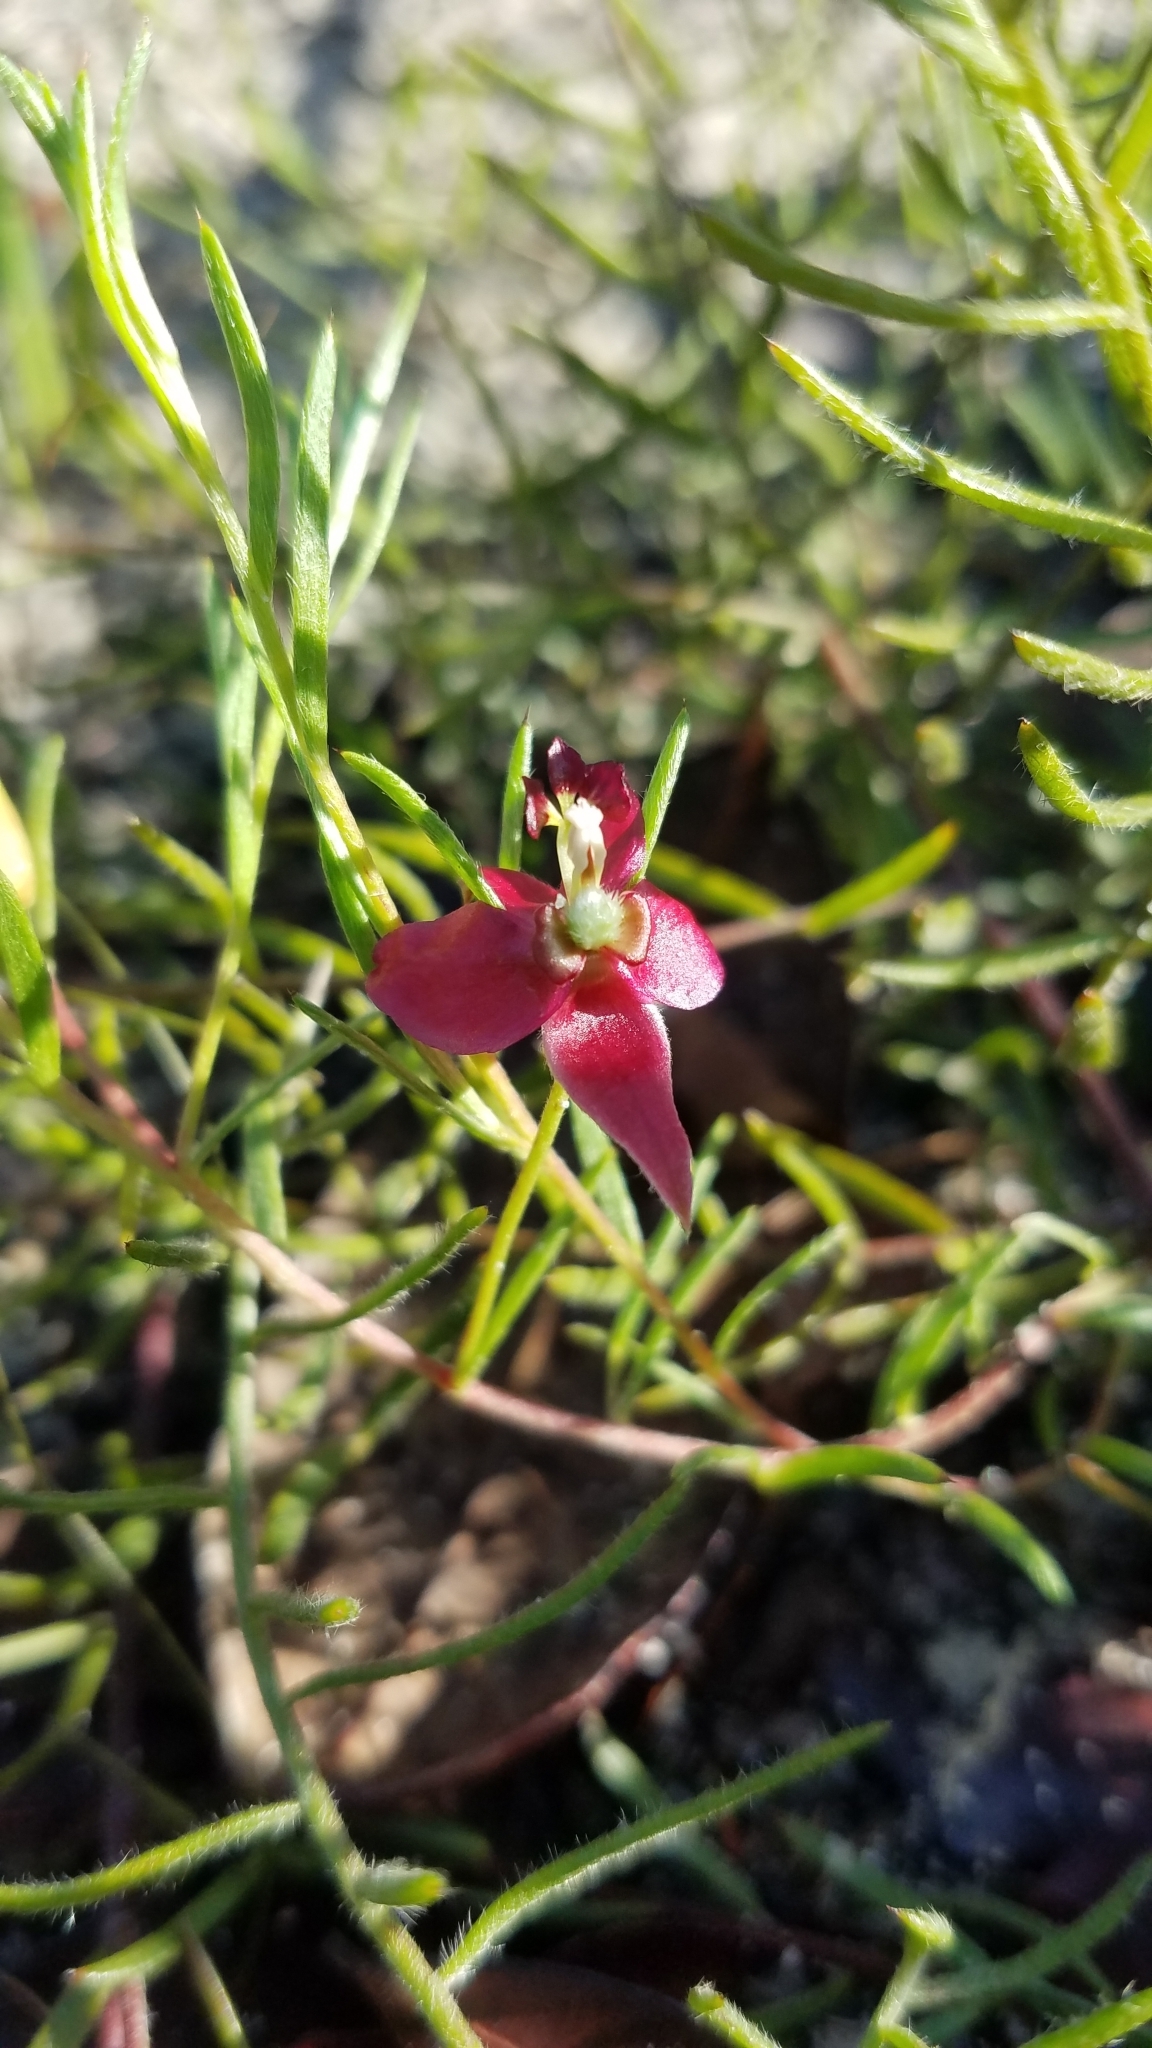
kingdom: Plantae
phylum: Tracheophyta
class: Magnoliopsida
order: Zygophyllales
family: Krameriaceae
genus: Krameria
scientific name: Krameria lanceolata
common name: Ratany
